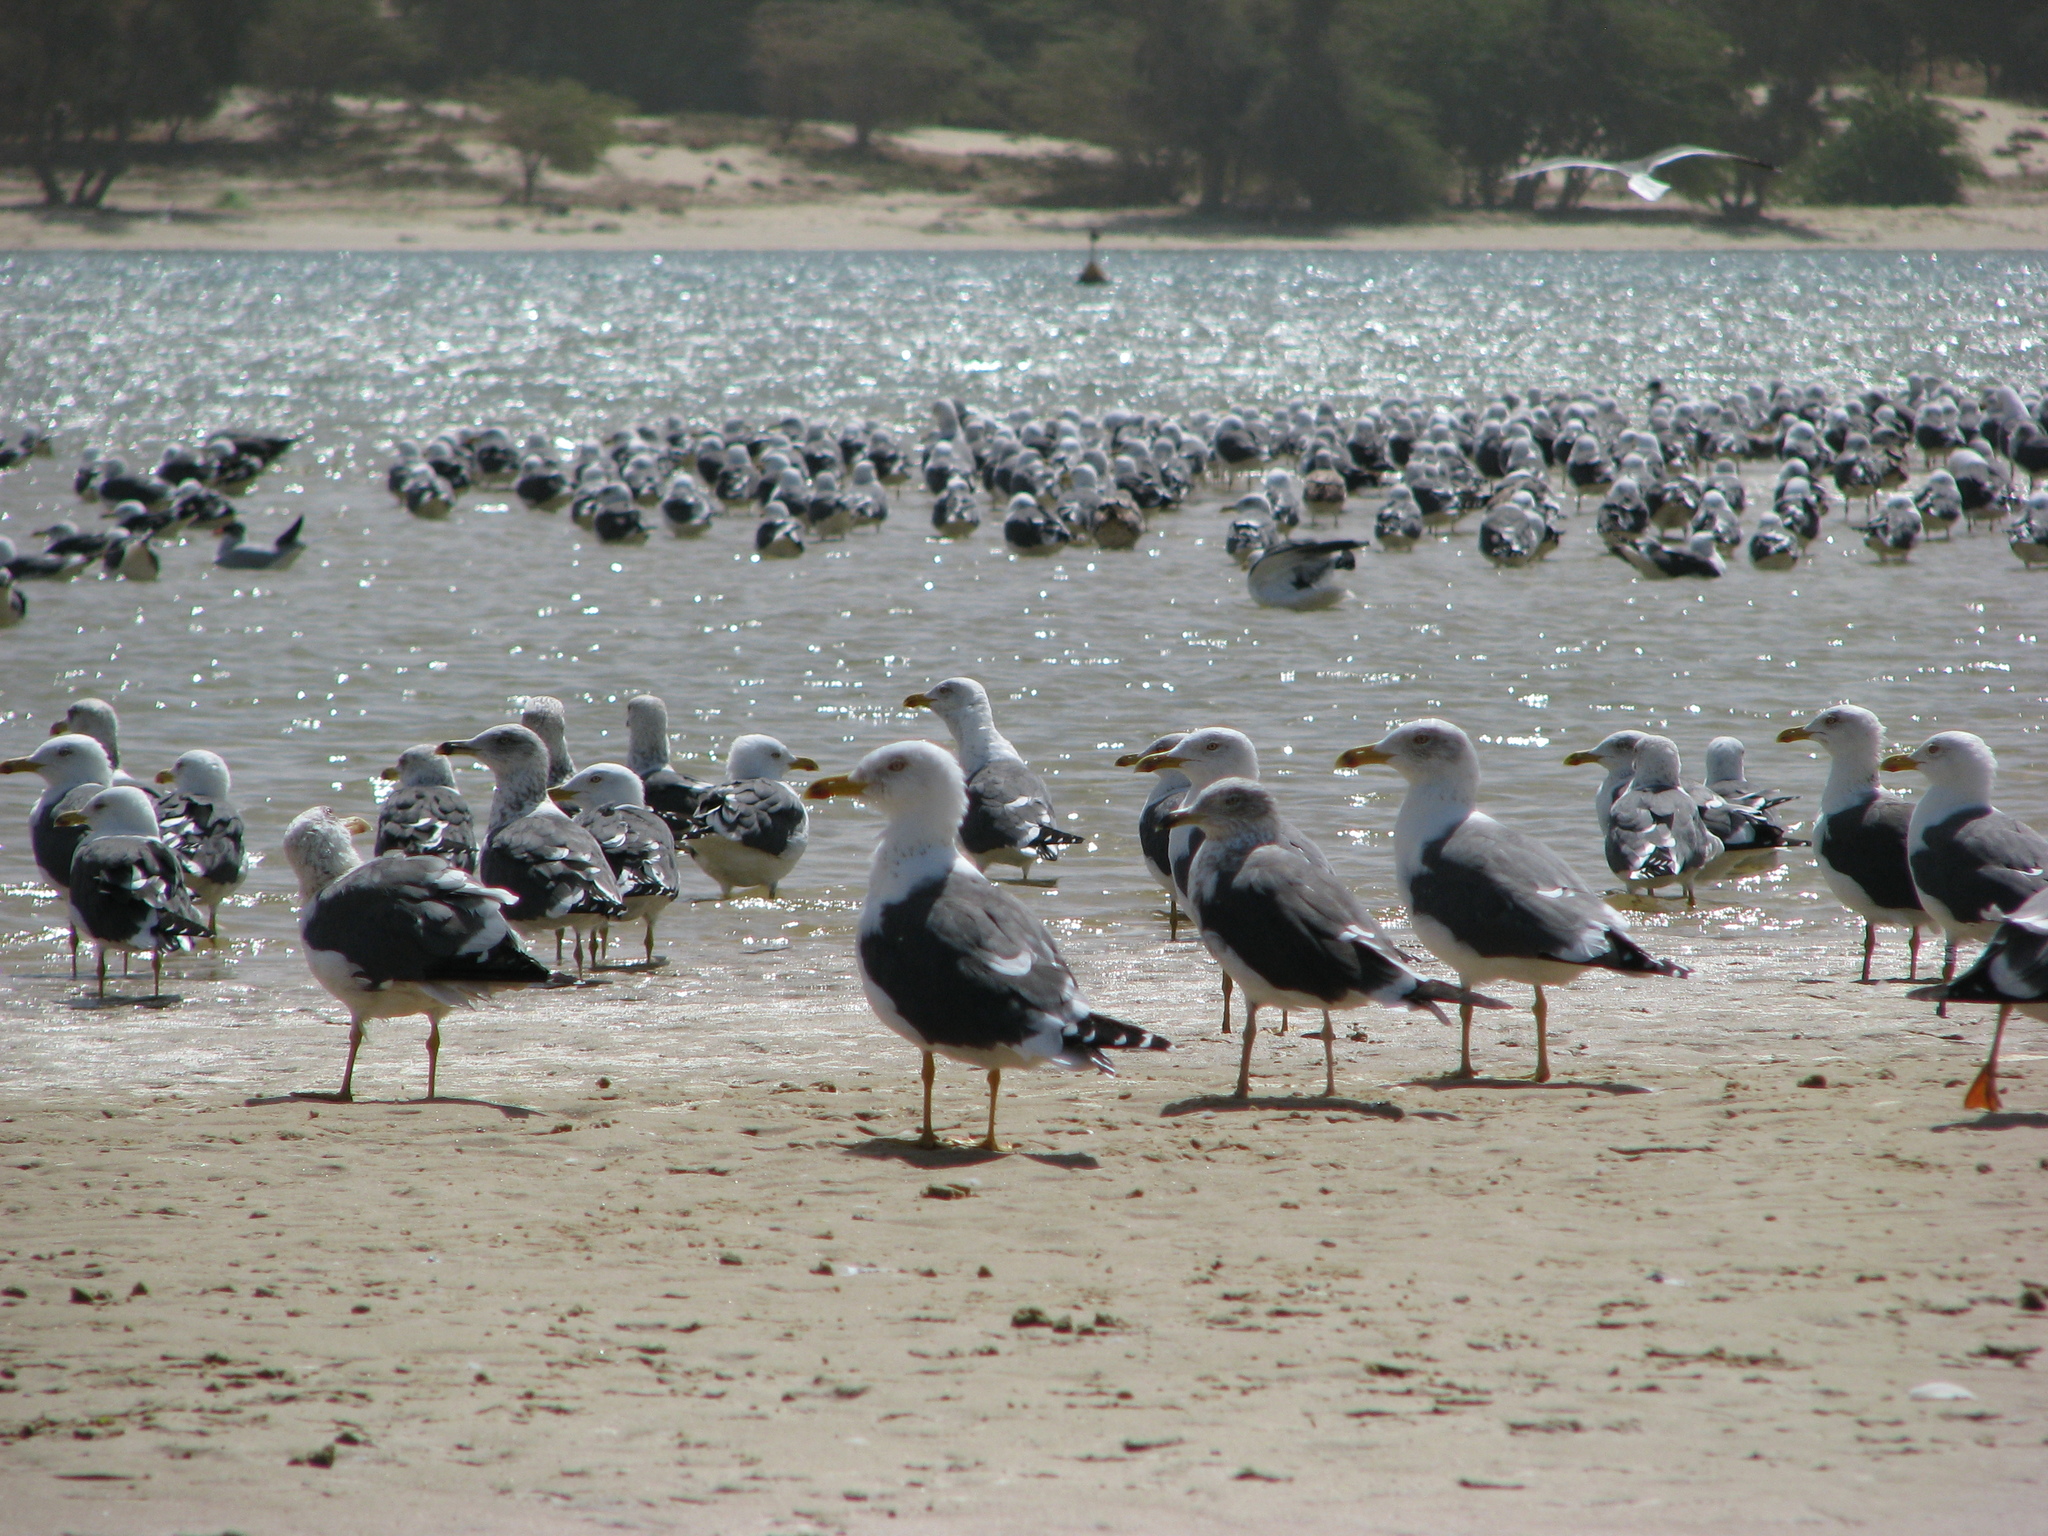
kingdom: Animalia
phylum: Chordata
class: Aves
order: Charadriiformes
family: Laridae
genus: Larus
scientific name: Larus fuscus
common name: Lesser black-backed gull
